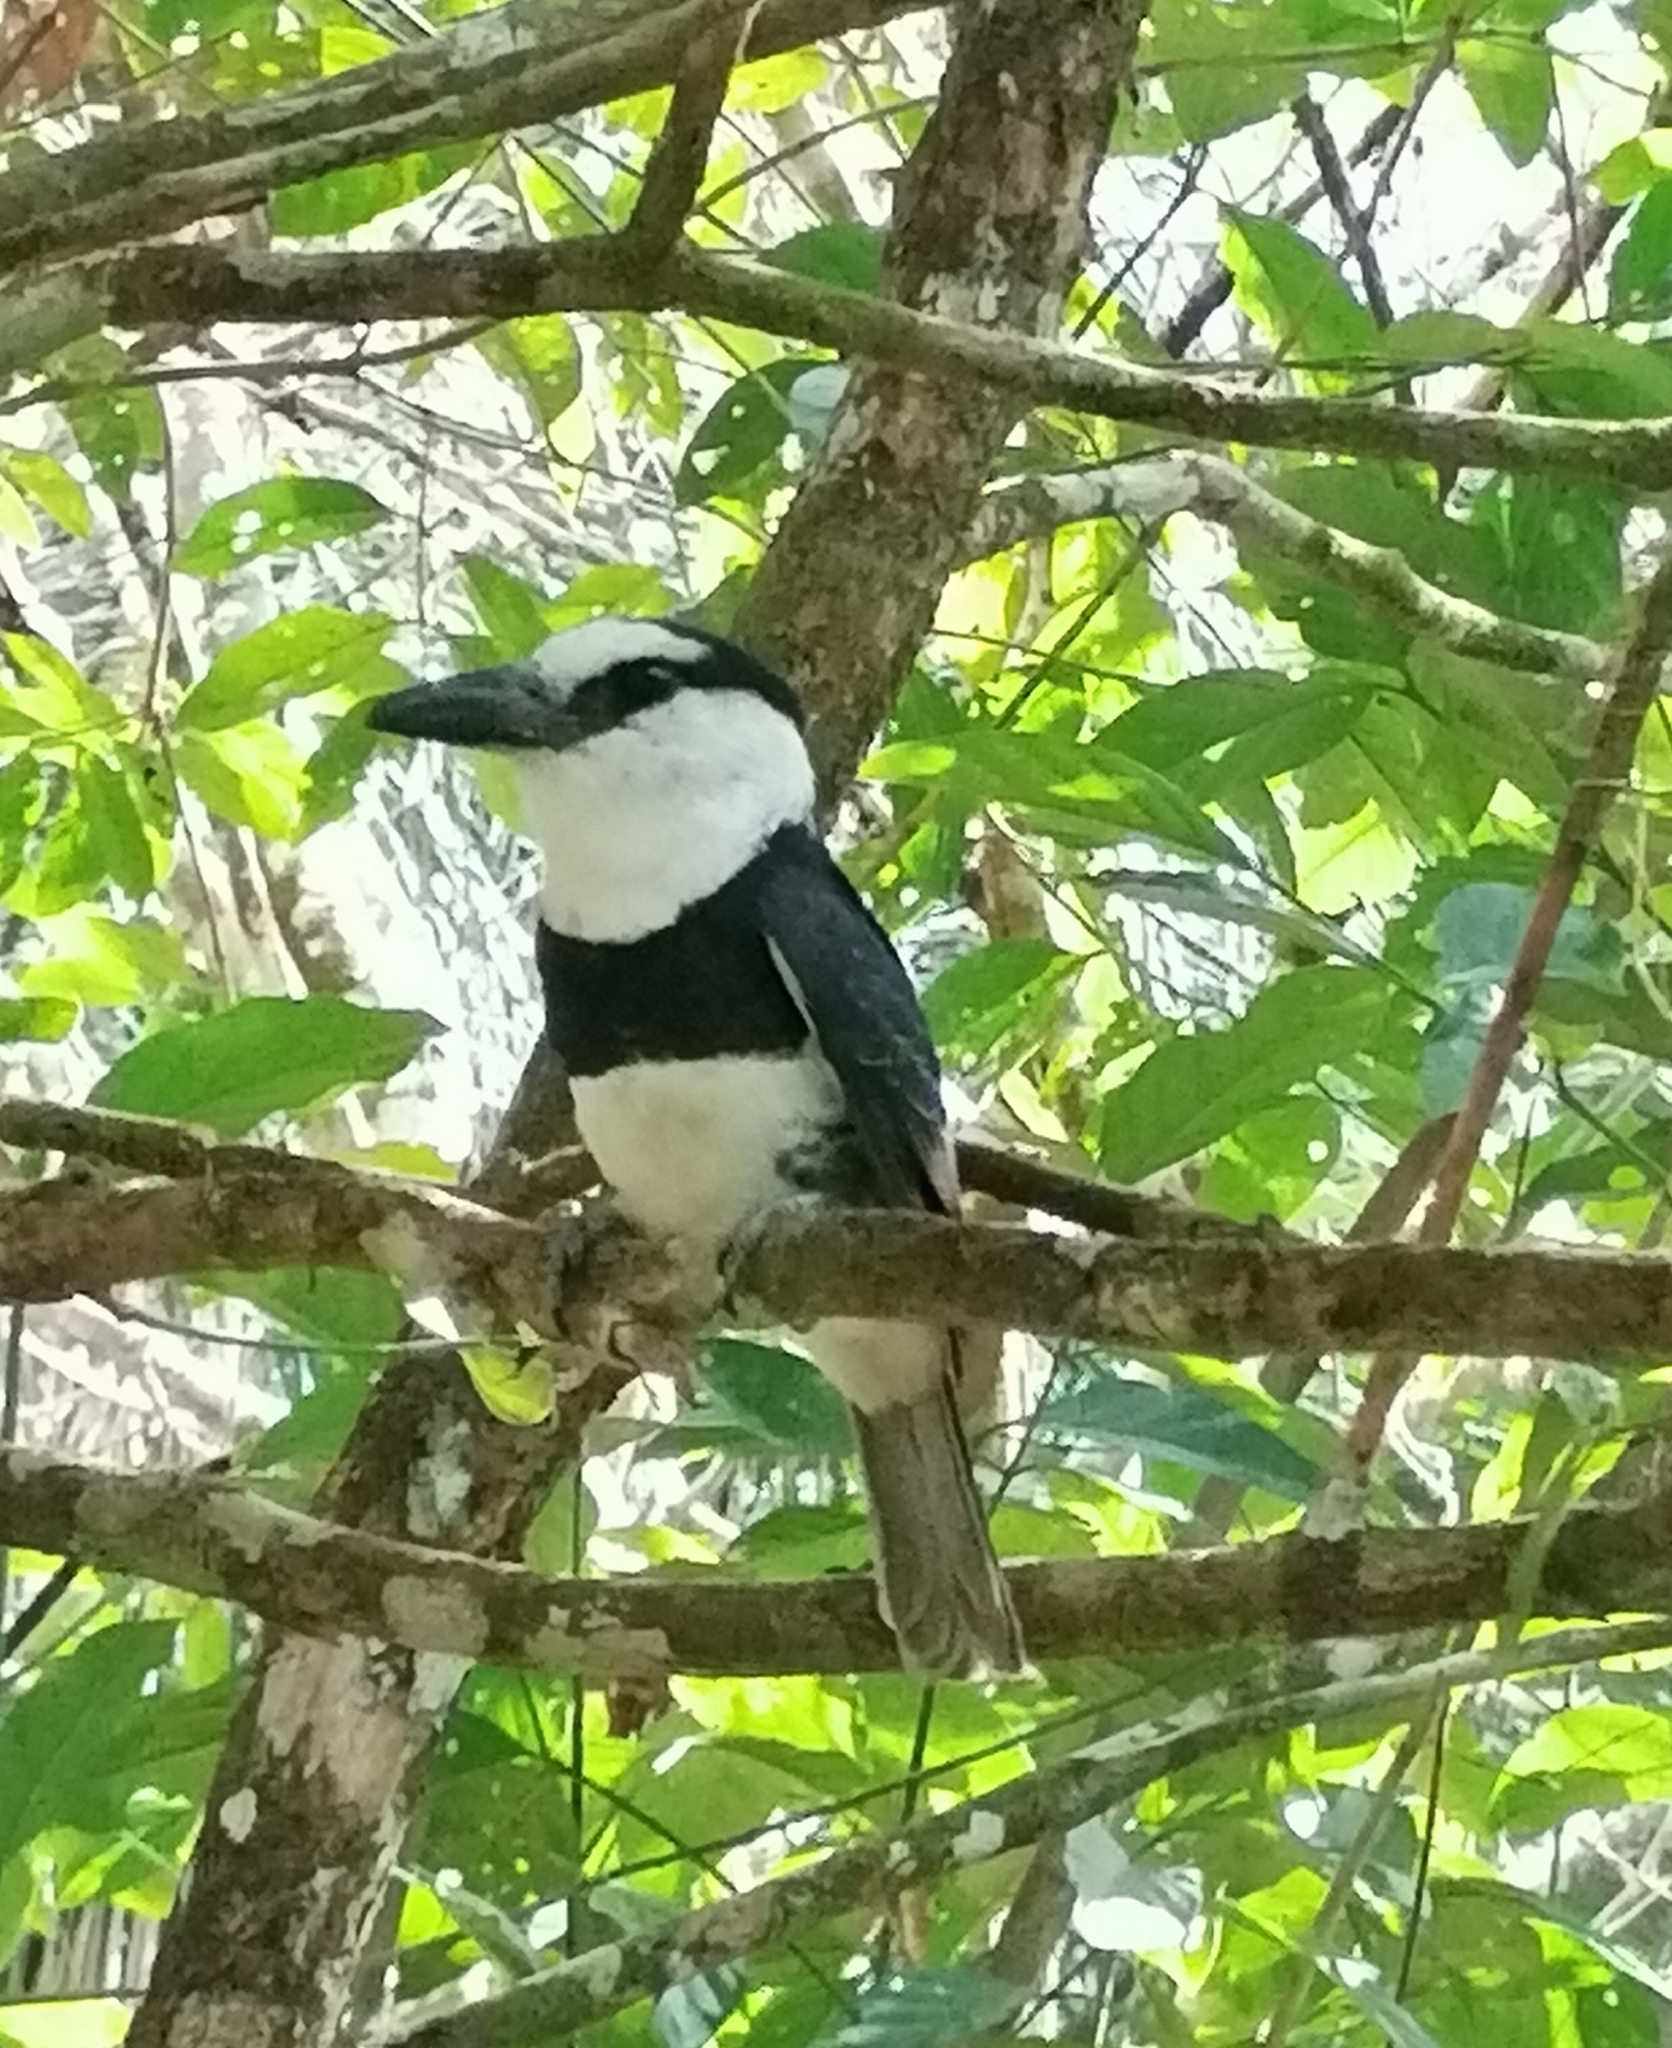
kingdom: Animalia
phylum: Chordata
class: Aves
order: Piciformes
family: Bucconidae
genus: Notharchus
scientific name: Notharchus hyperrhynchus
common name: White-necked puffbird
